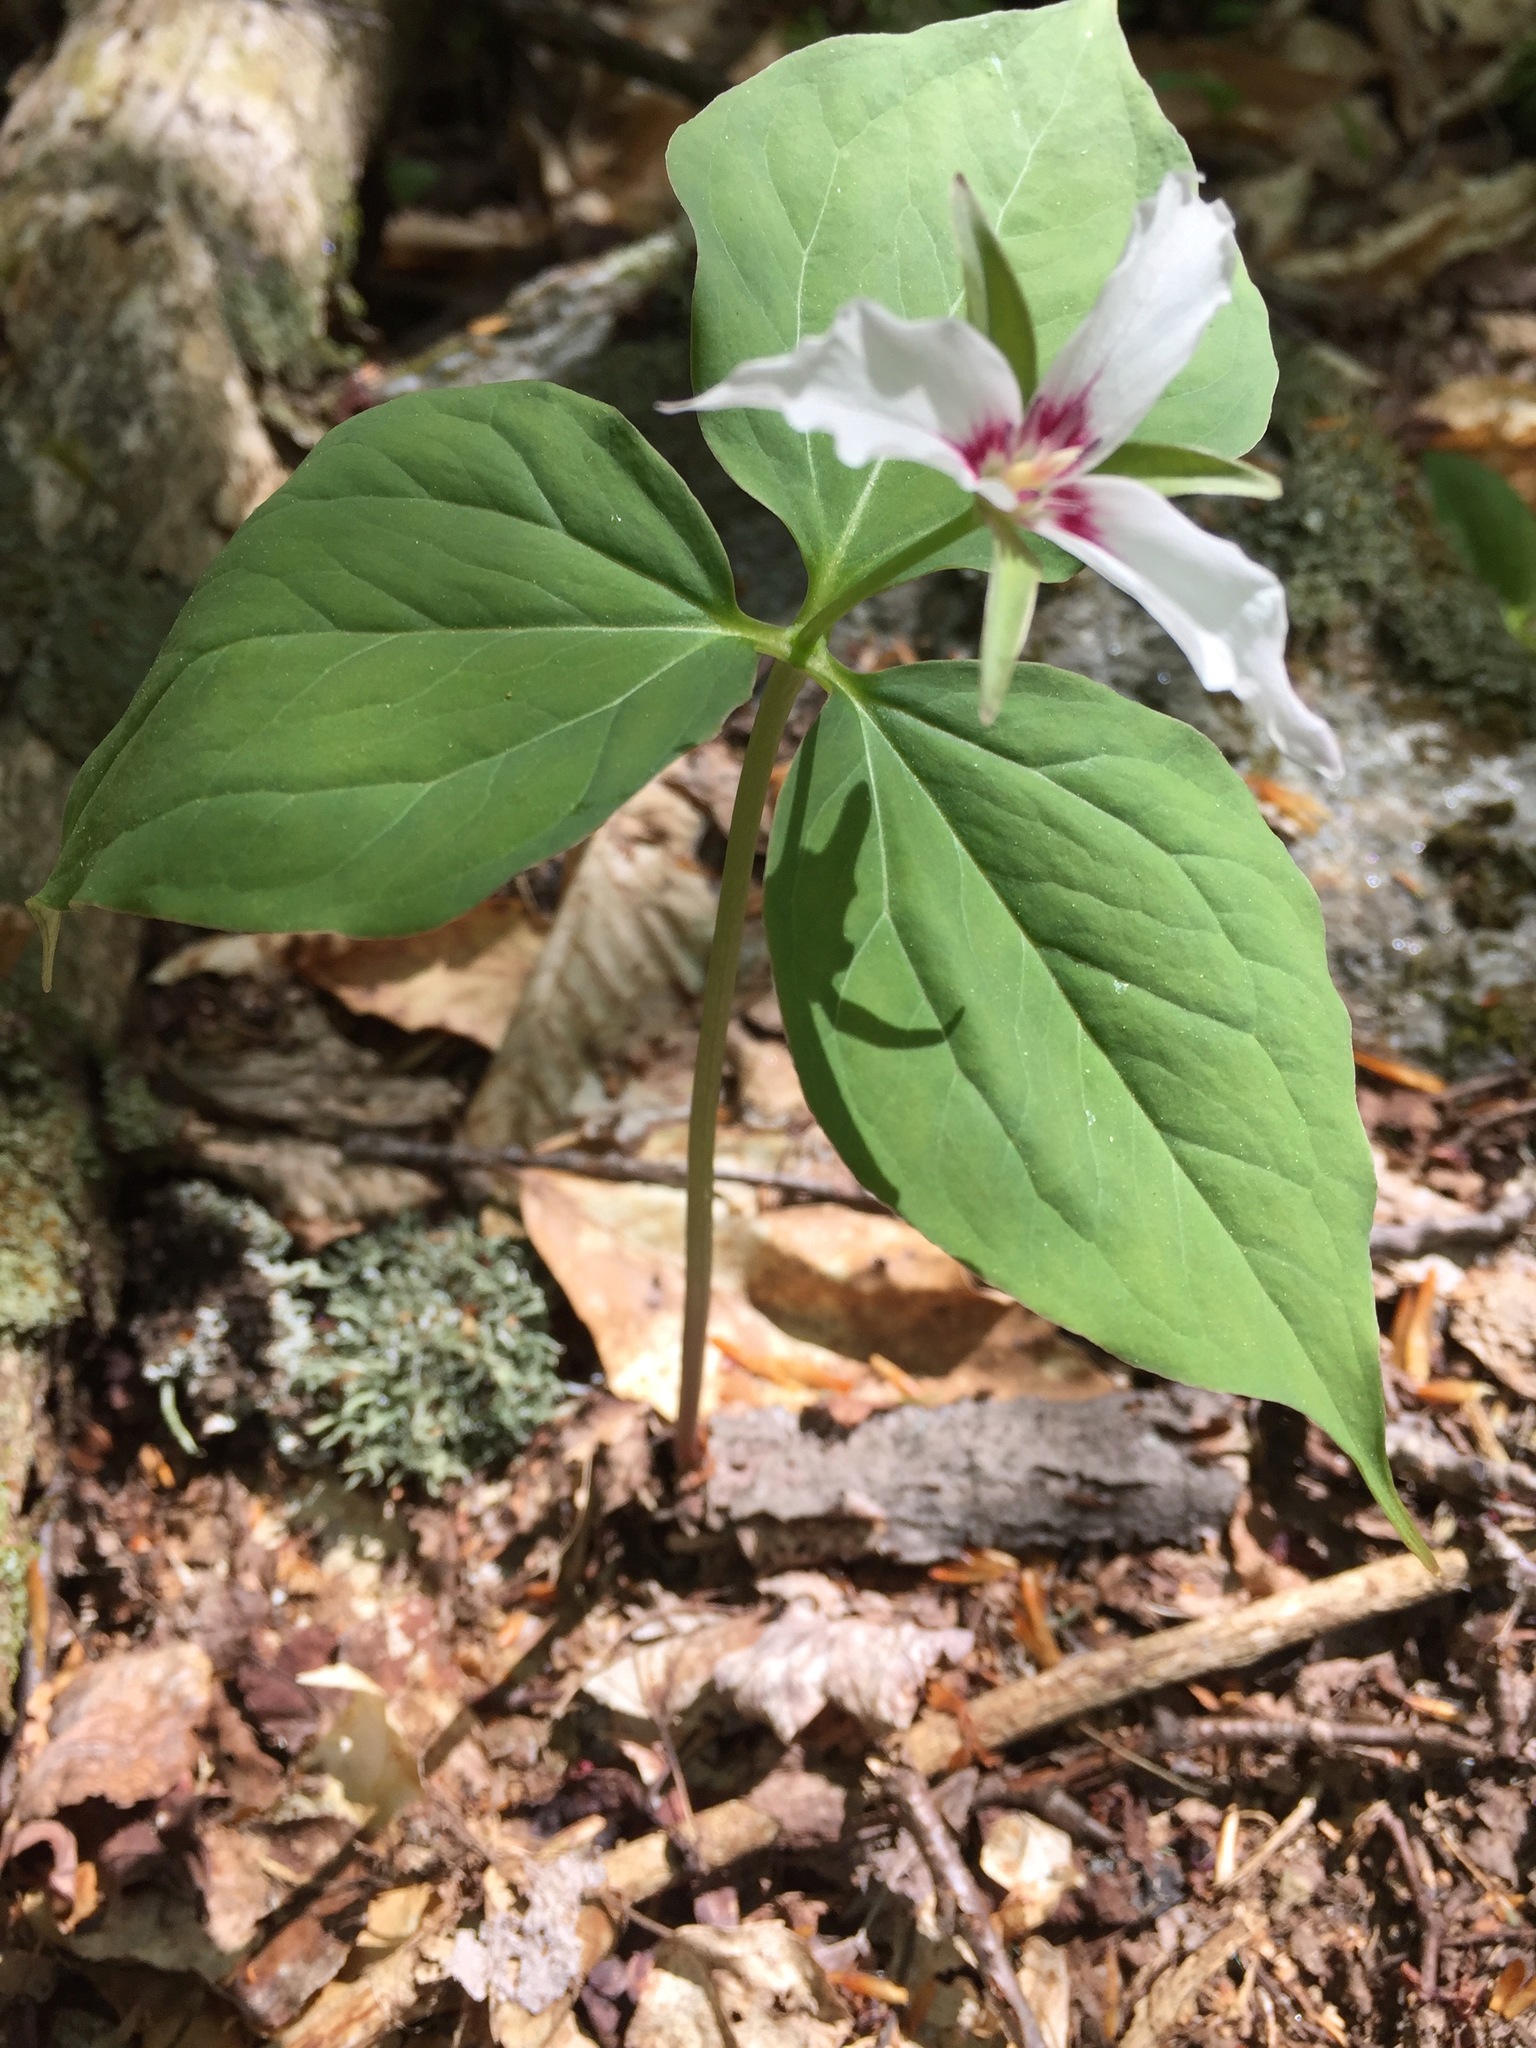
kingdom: Plantae
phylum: Tracheophyta
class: Liliopsida
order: Liliales
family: Melanthiaceae
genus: Trillium
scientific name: Trillium undulatum
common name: Paint trillium
